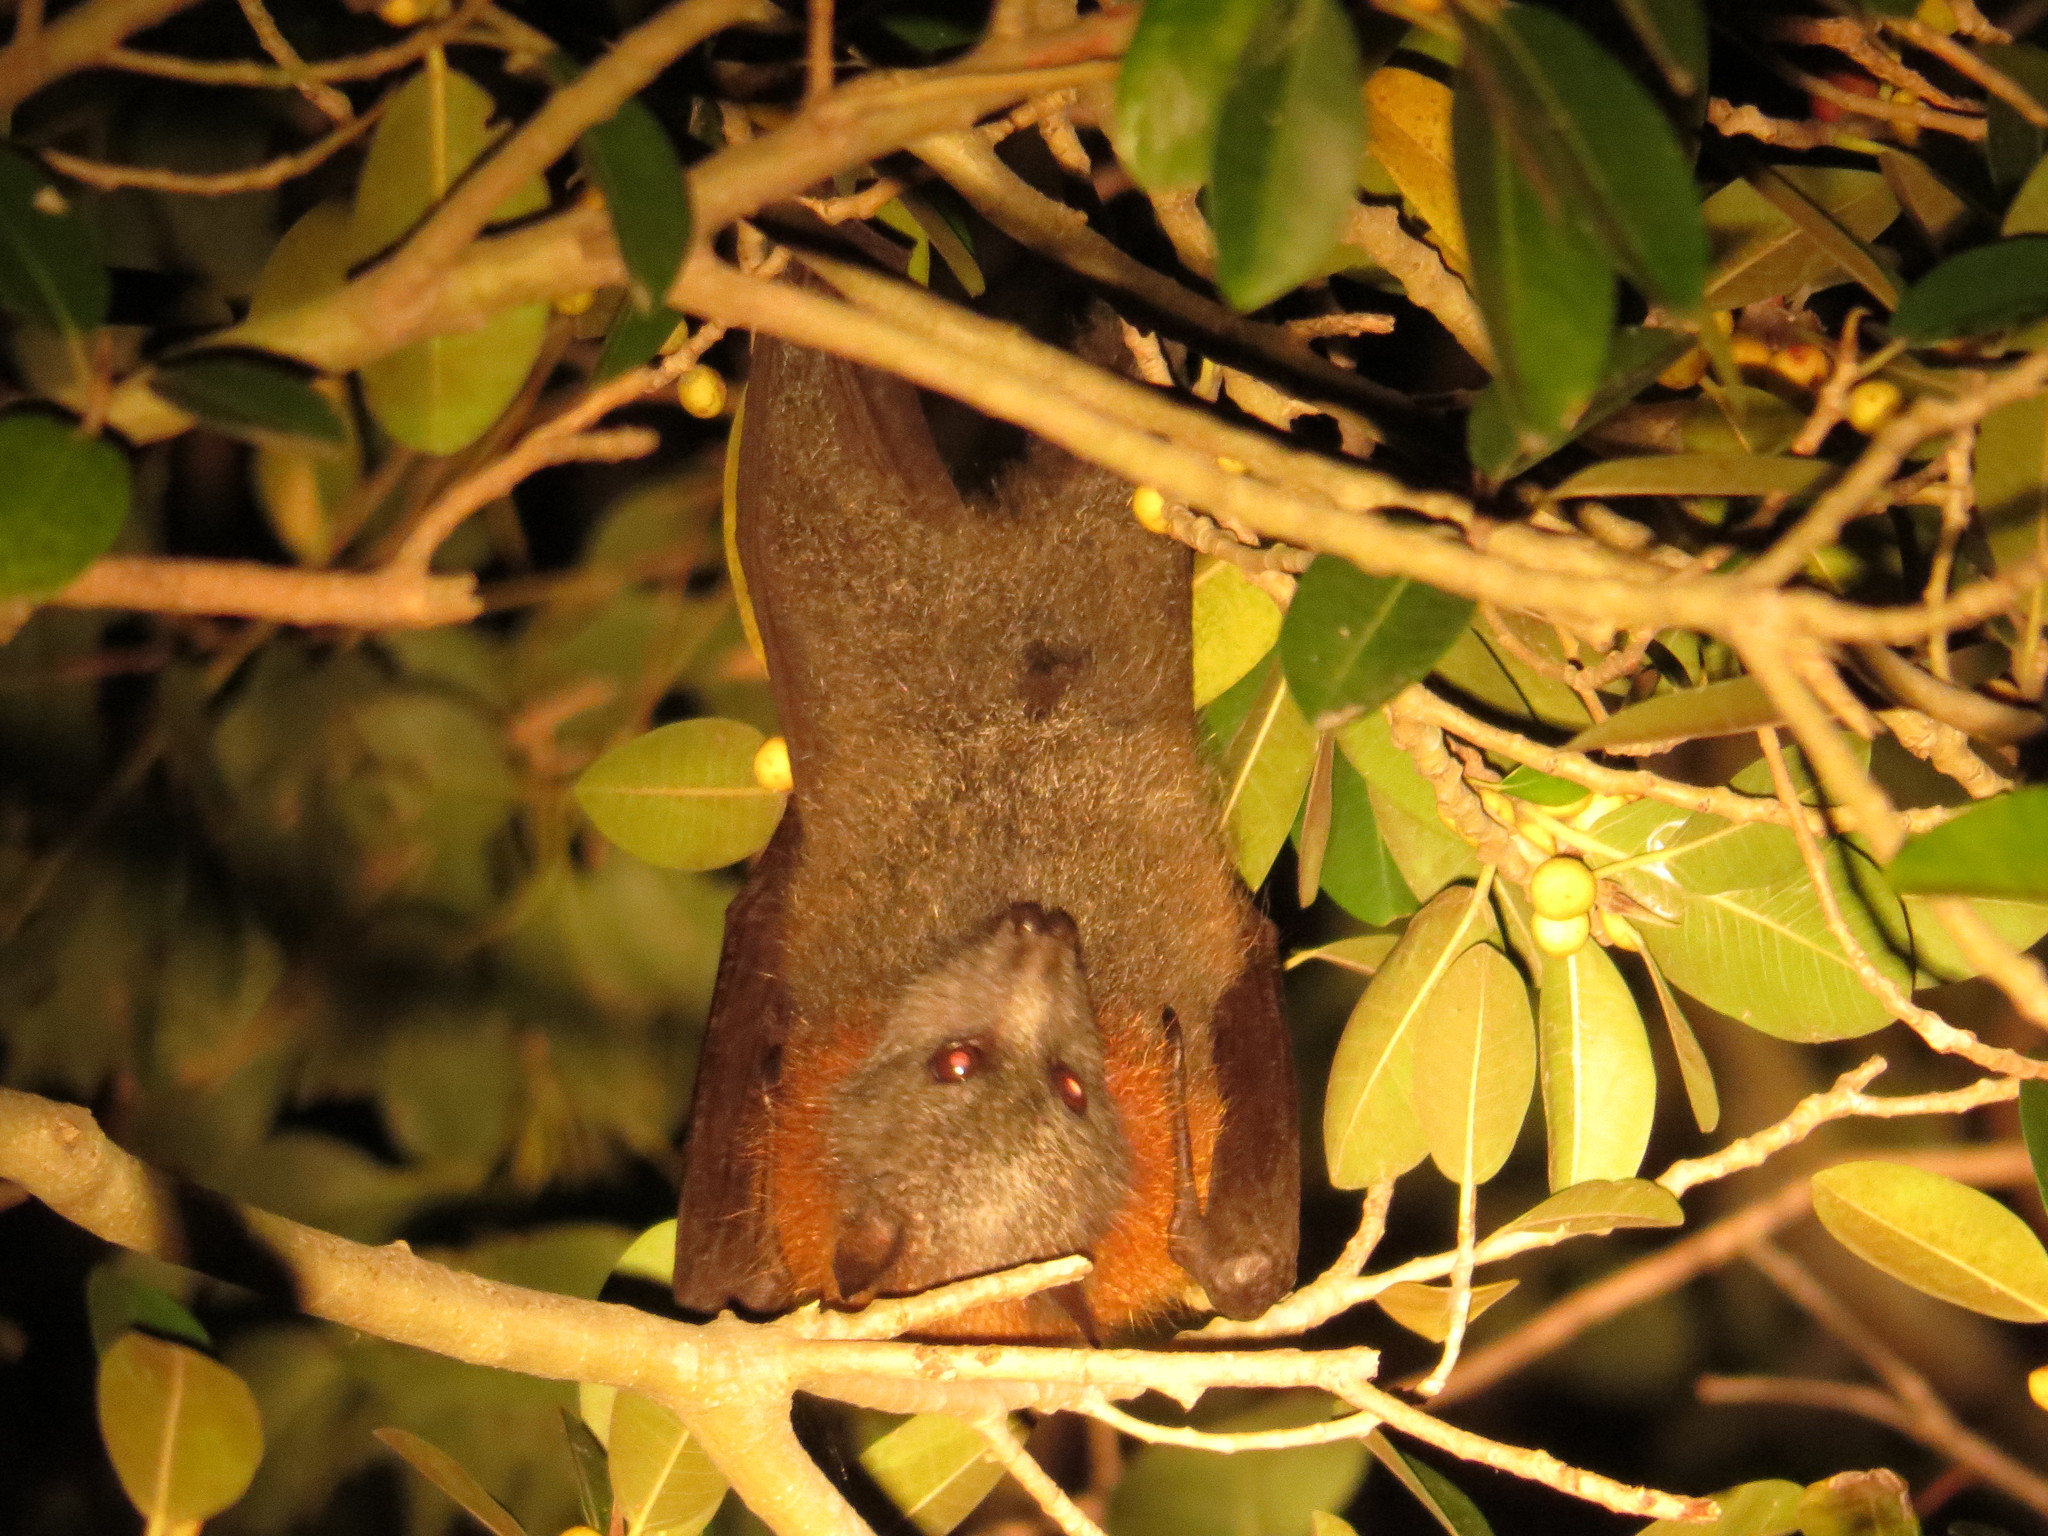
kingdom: Animalia
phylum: Chordata
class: Mammalia
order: Chiroptera
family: Pteropodidae
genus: Pteropus
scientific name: Pteropus poliocephalus
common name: Gray-headed flying fox
